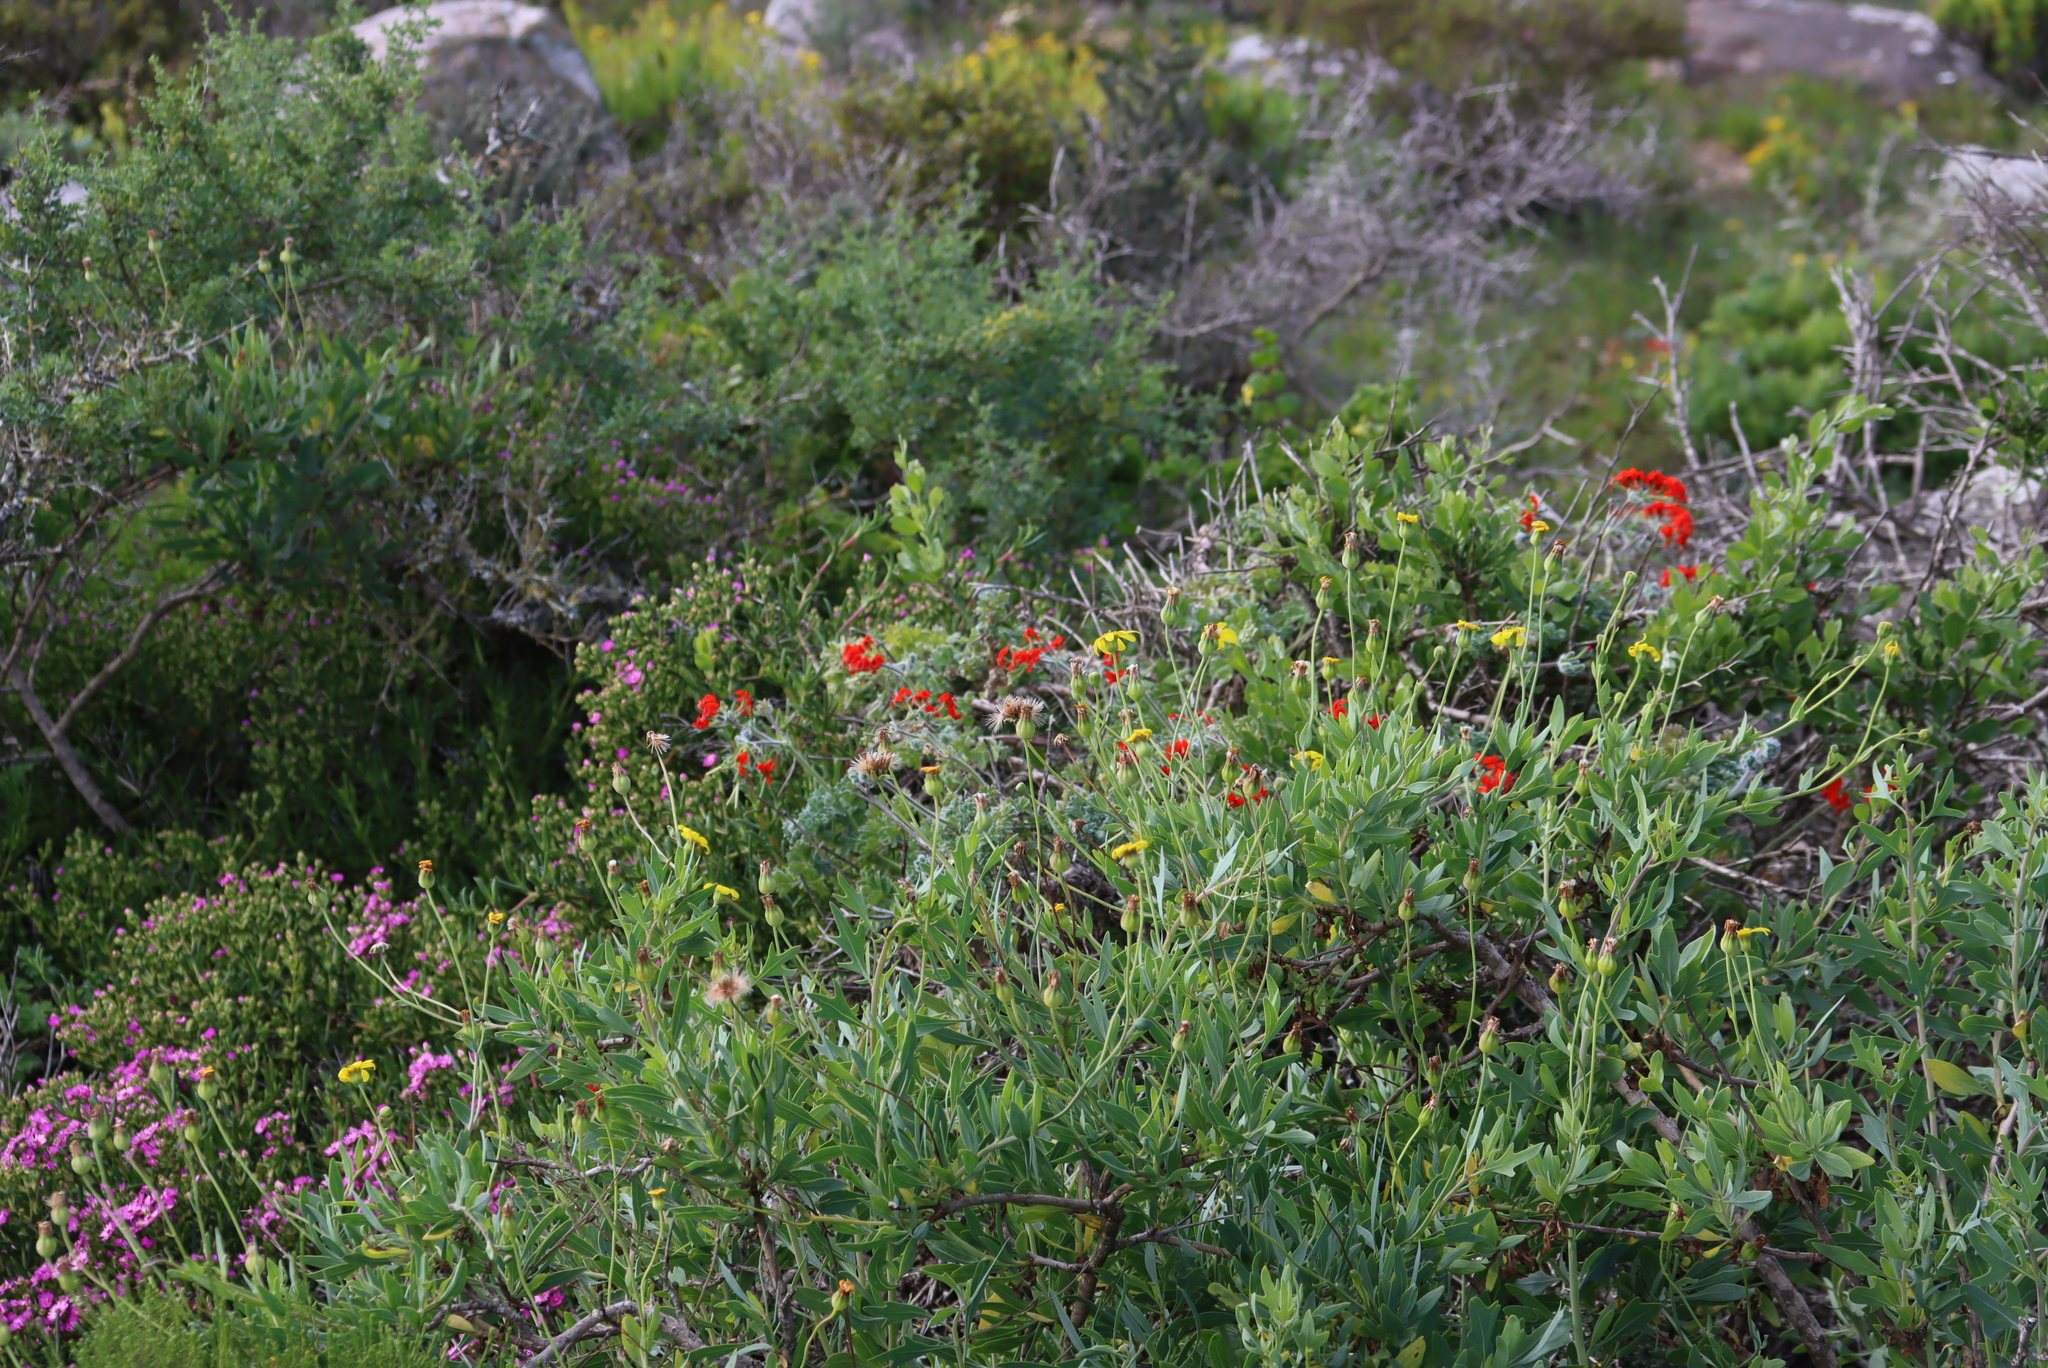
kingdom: Plantae
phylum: Tracheophyta
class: Magnoliopsida
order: Geraniales
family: Geraniaceae
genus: Pelargonium
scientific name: Pelargonium fulgidum
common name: Celandine-leaf pelargonium
